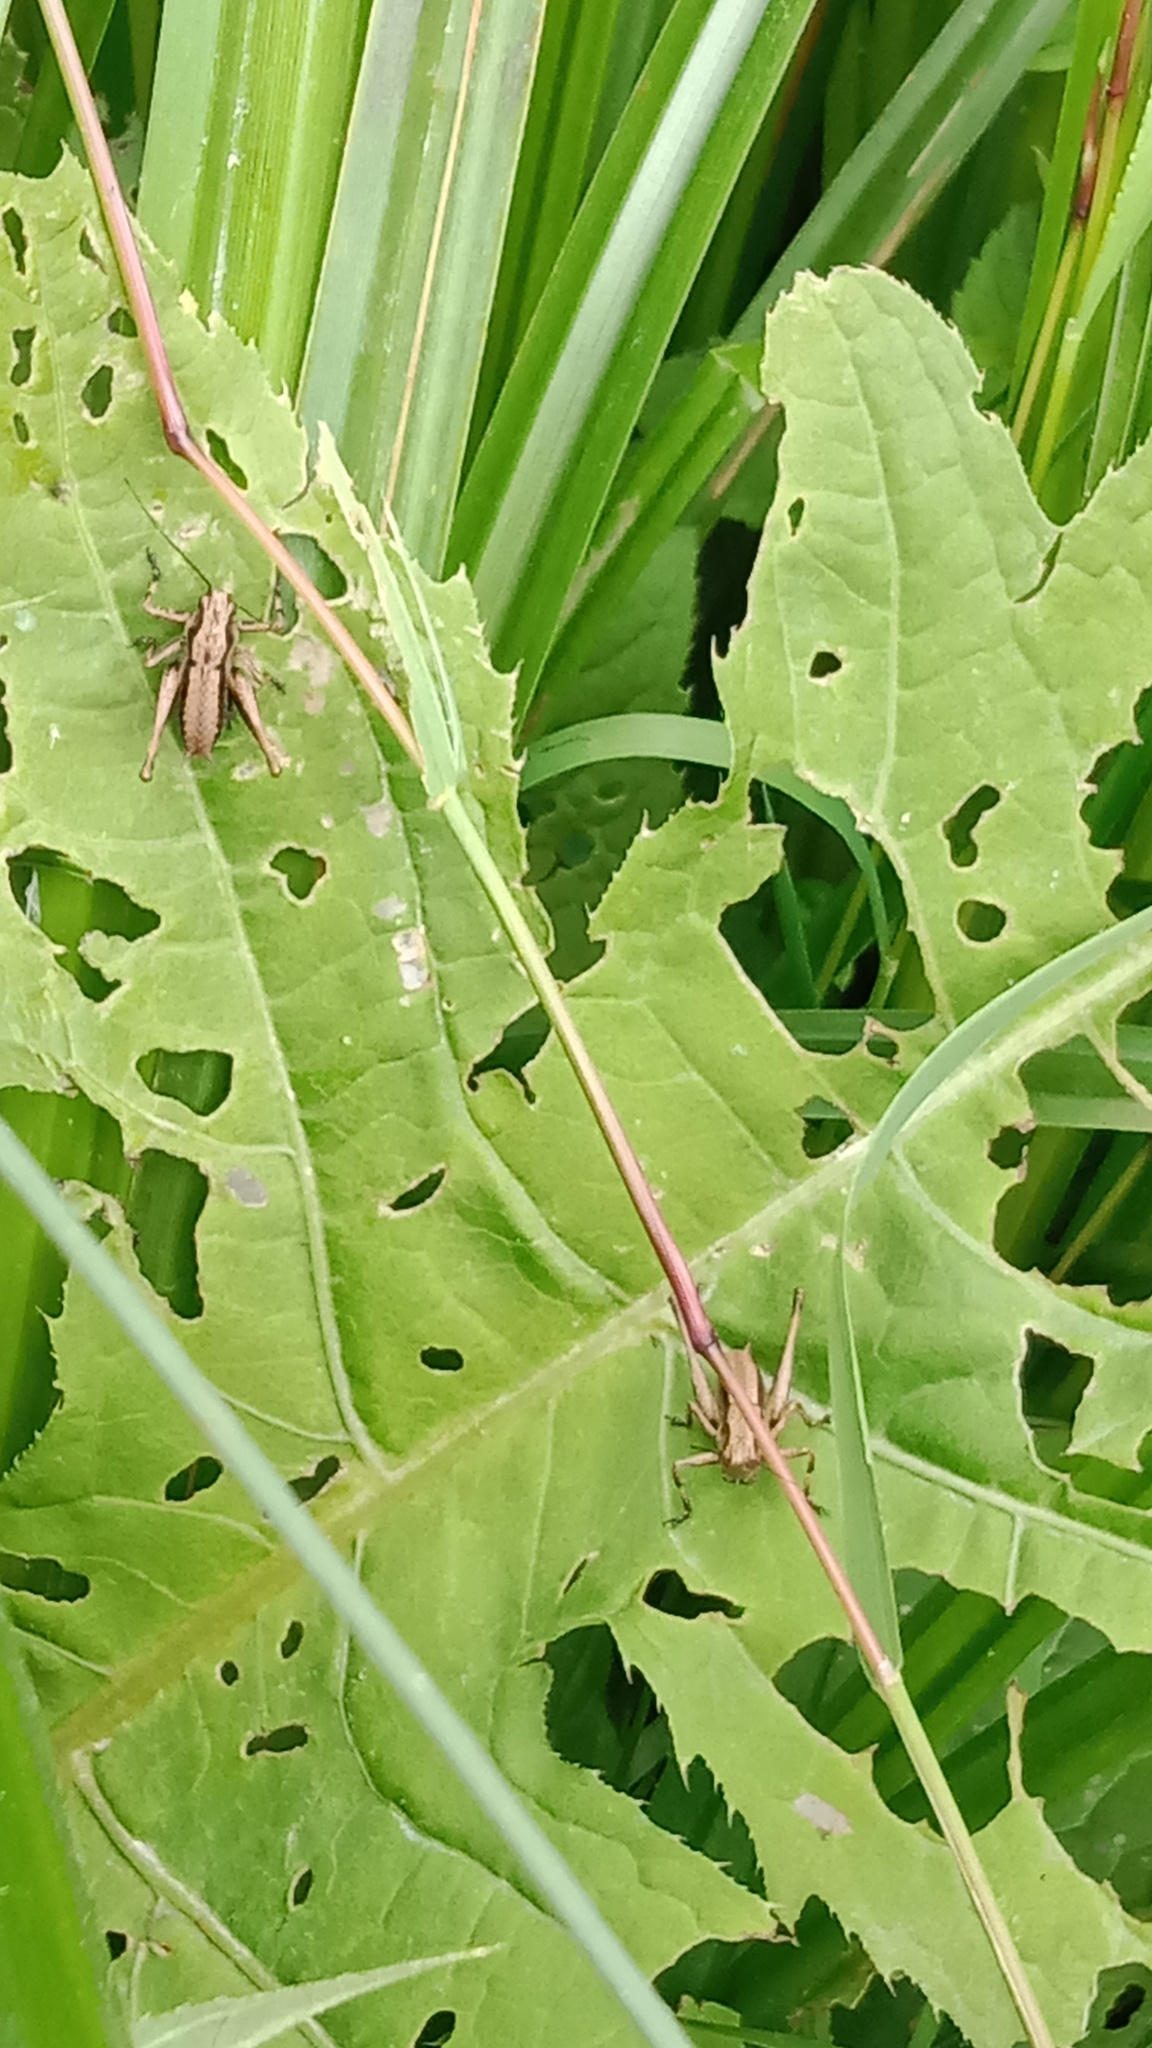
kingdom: Animalia
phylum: Arthropoda
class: Insecta
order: Orthoptera
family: Tettigoniidae
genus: Pholidoptera
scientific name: Pholidoptera griseoaptera
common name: Dark bush-cricket
